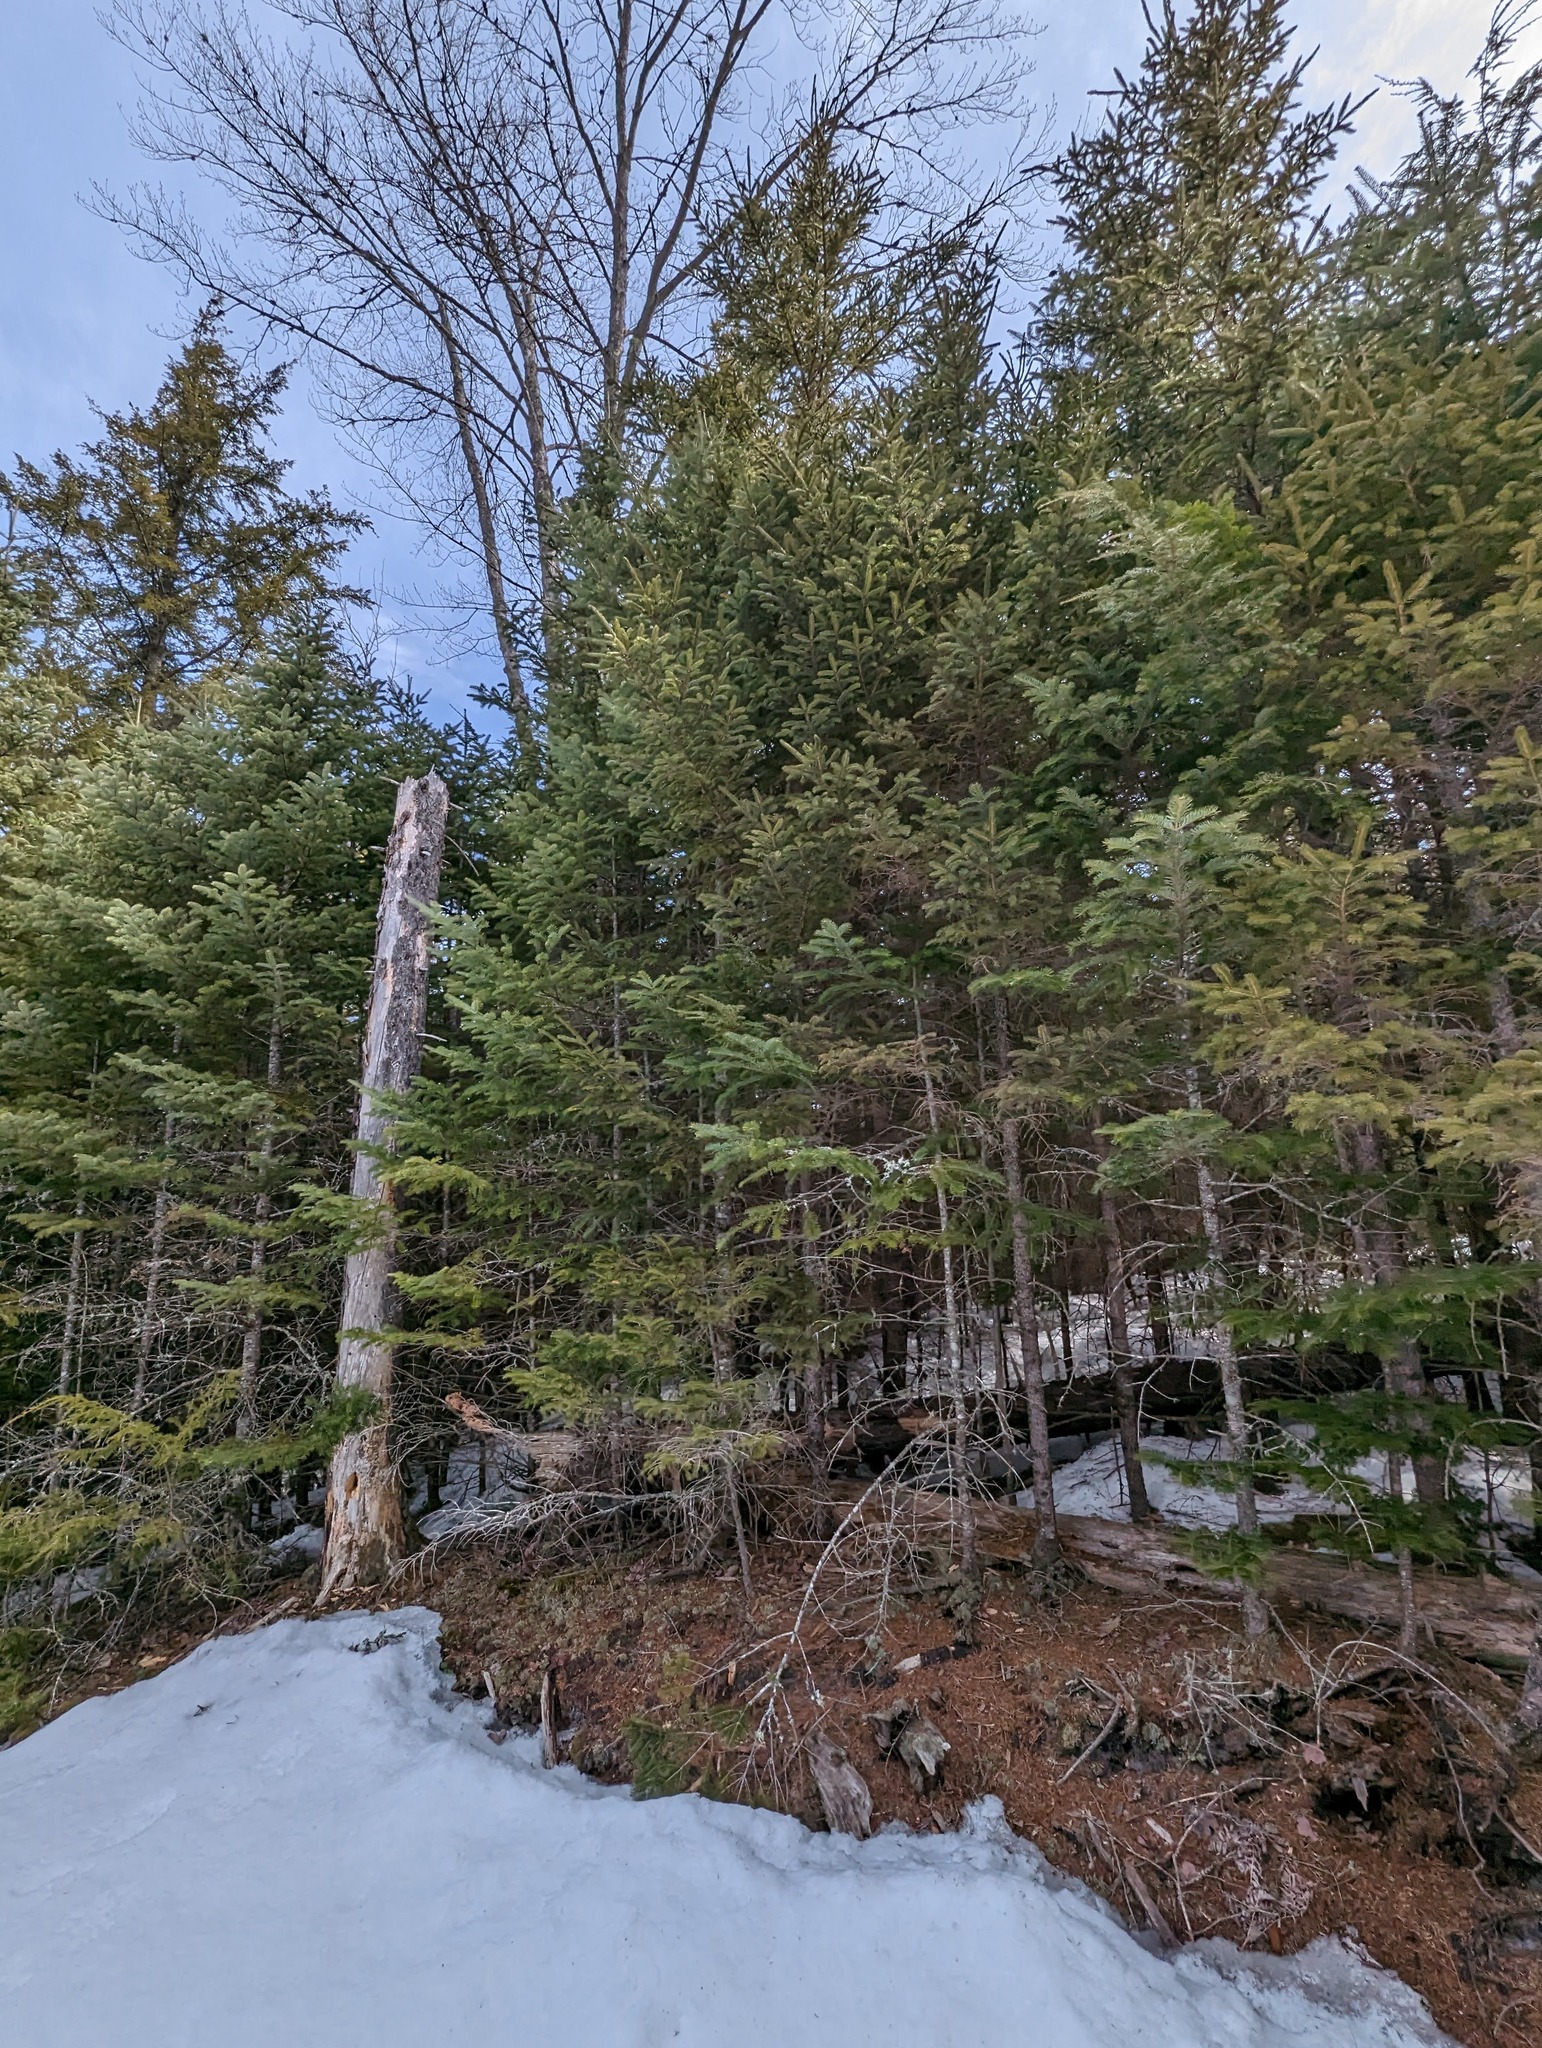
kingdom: Plantae
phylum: Tracheophyta
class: Pinopsida
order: Pinales
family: Pinaceae
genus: Abies
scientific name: Abies balsamea
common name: Balsam fir
